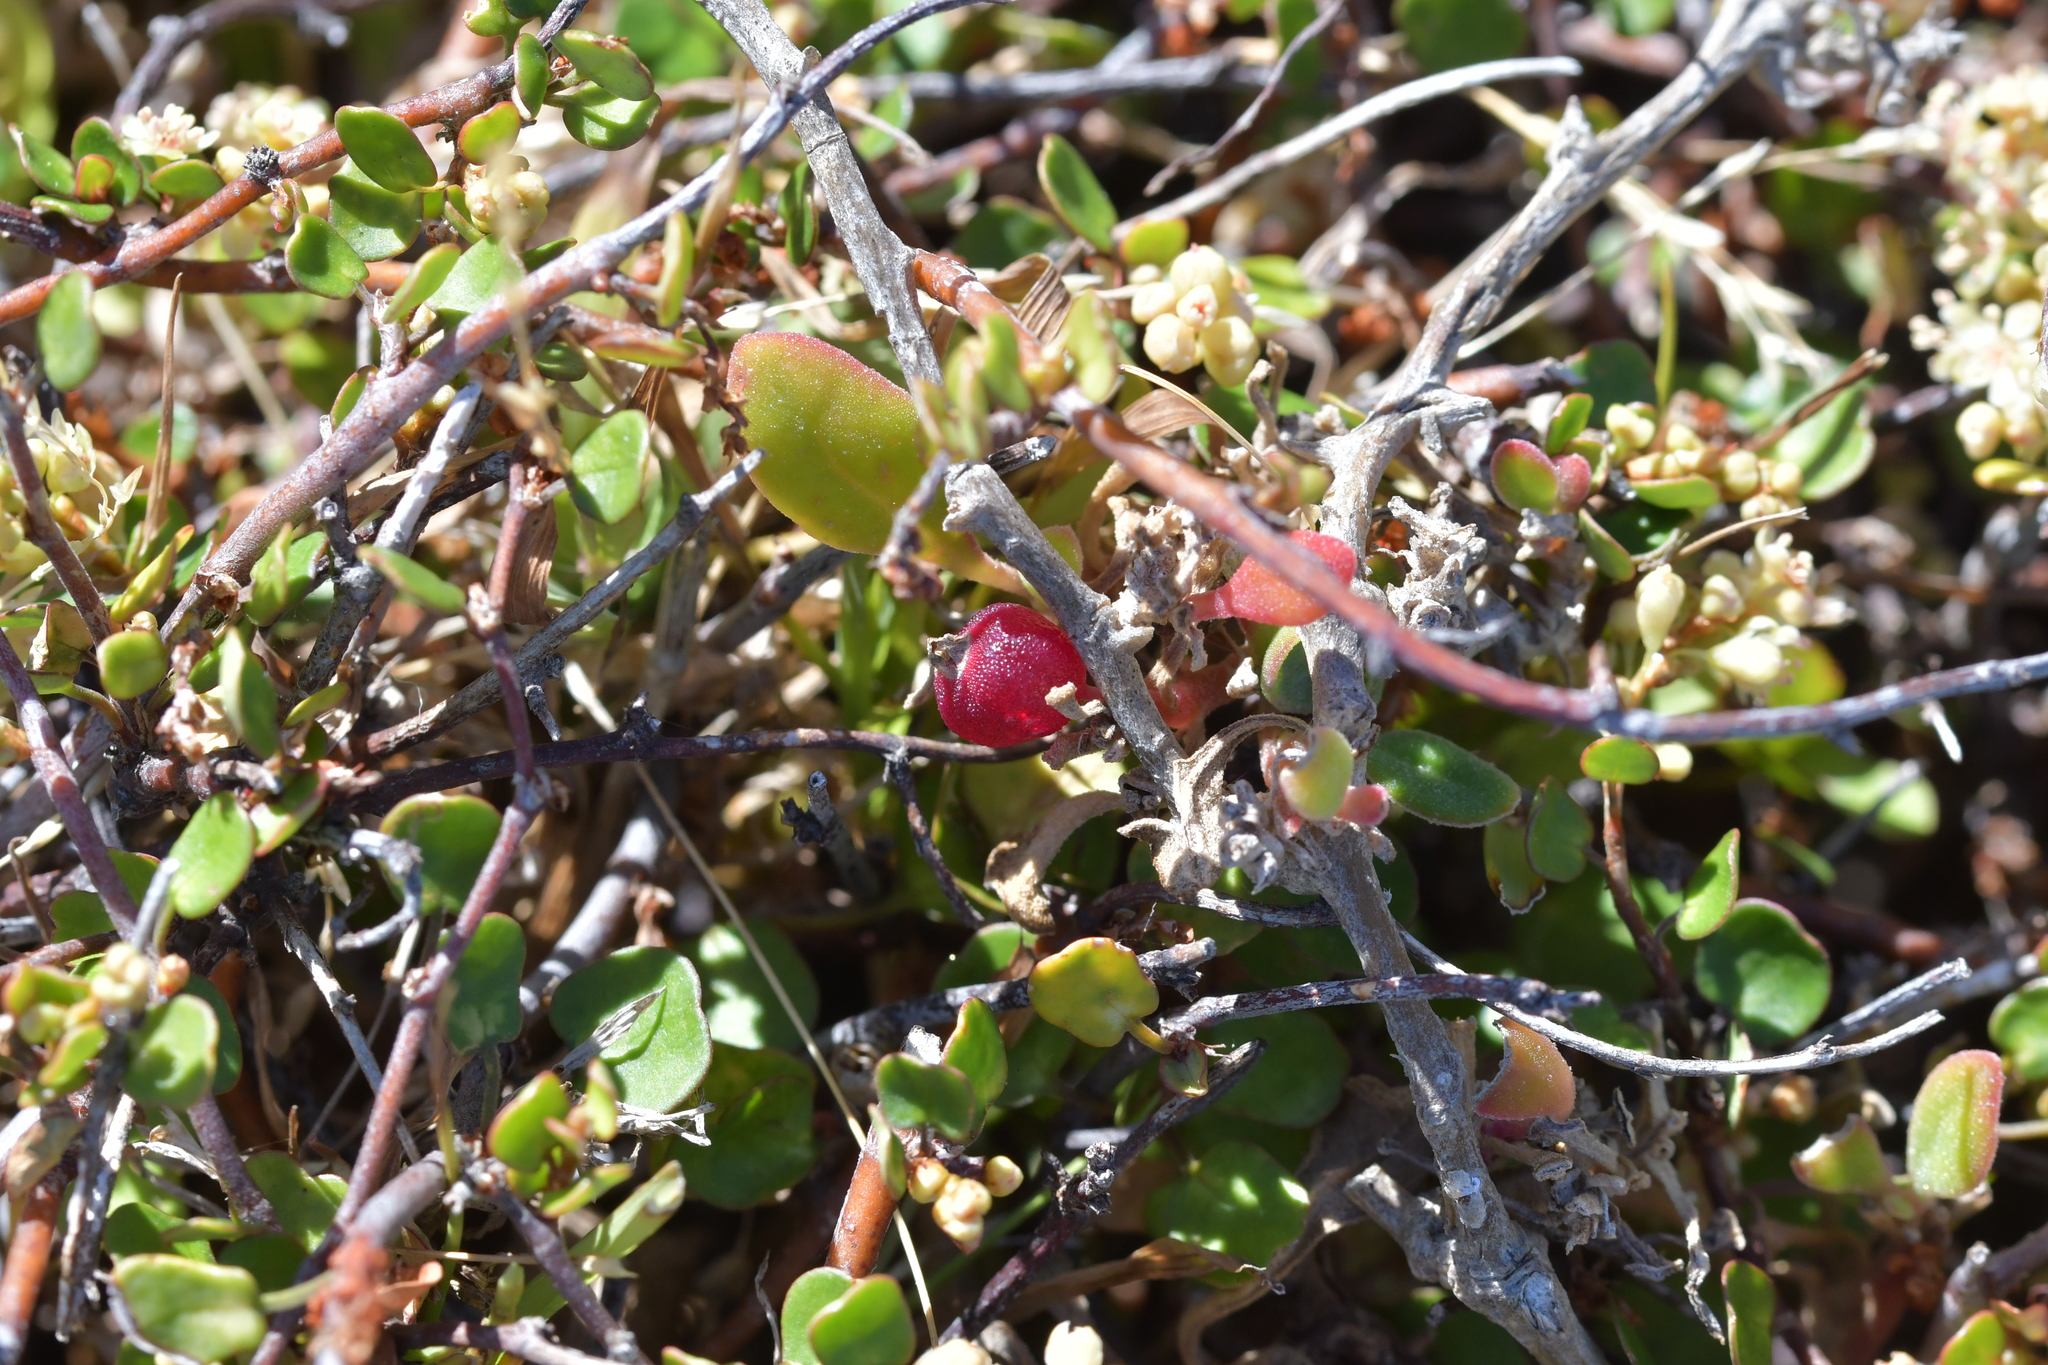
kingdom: Plantae
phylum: Tracheophyta
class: Magnoliopsida
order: Caryophyllales
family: Aizoaceae
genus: Tetragonia
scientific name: Tetragonia implexicoma
